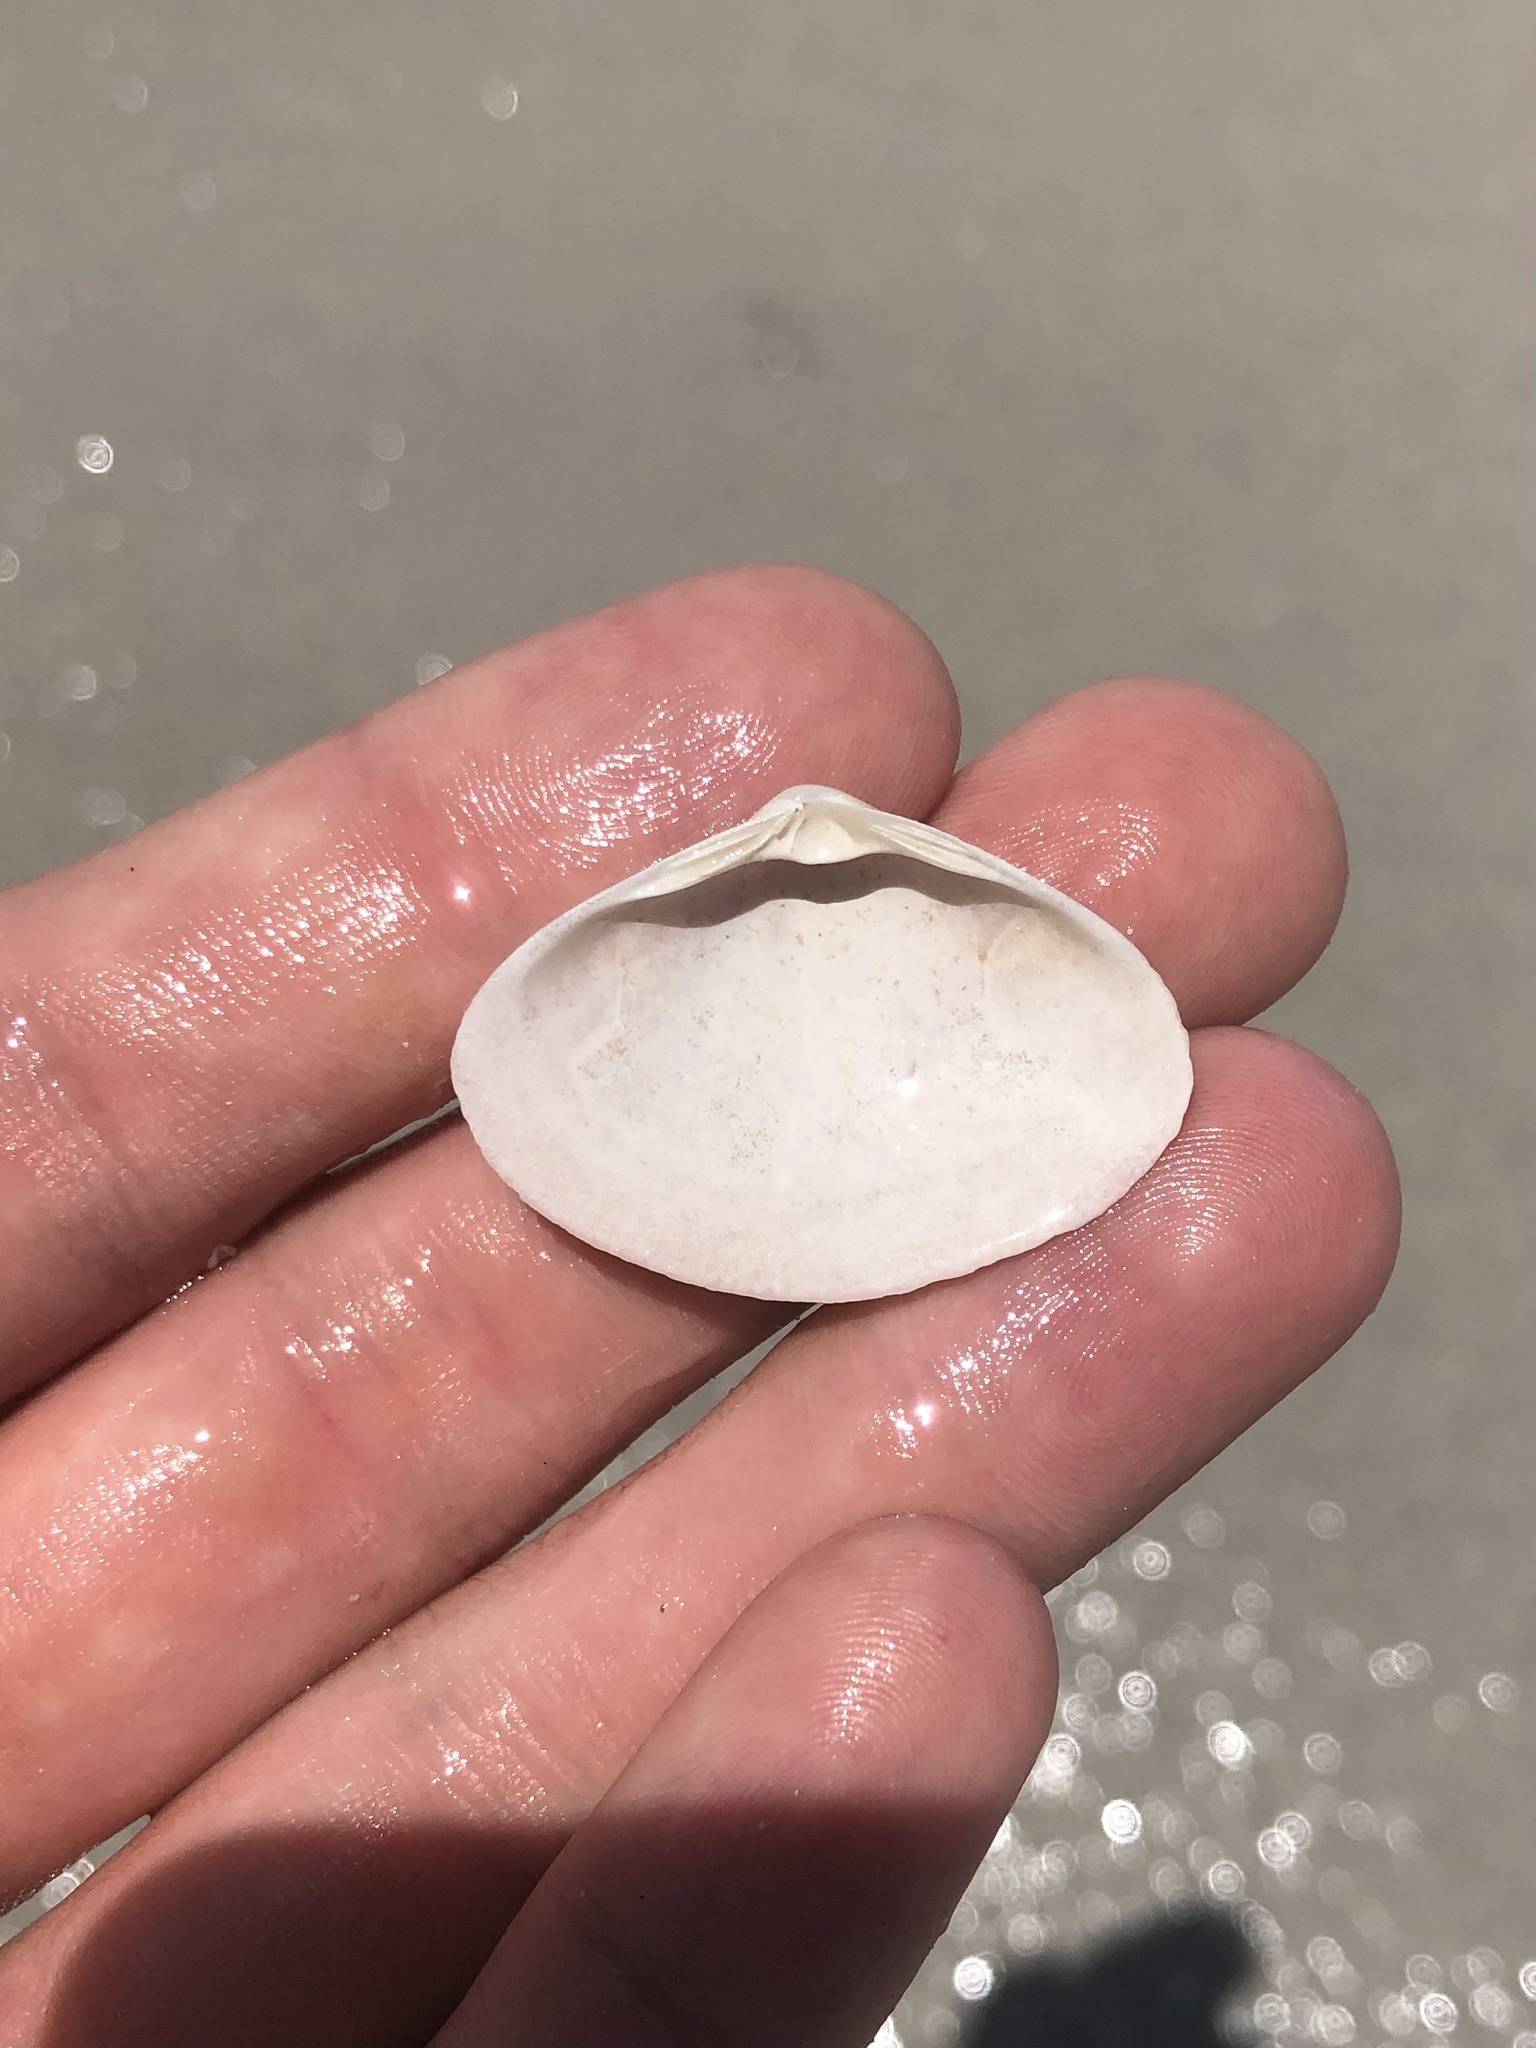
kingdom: Animalia
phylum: Mollusca
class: Bivalvia
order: Venerida
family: Mactridae
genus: Spisula
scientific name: Spisula raveneli
